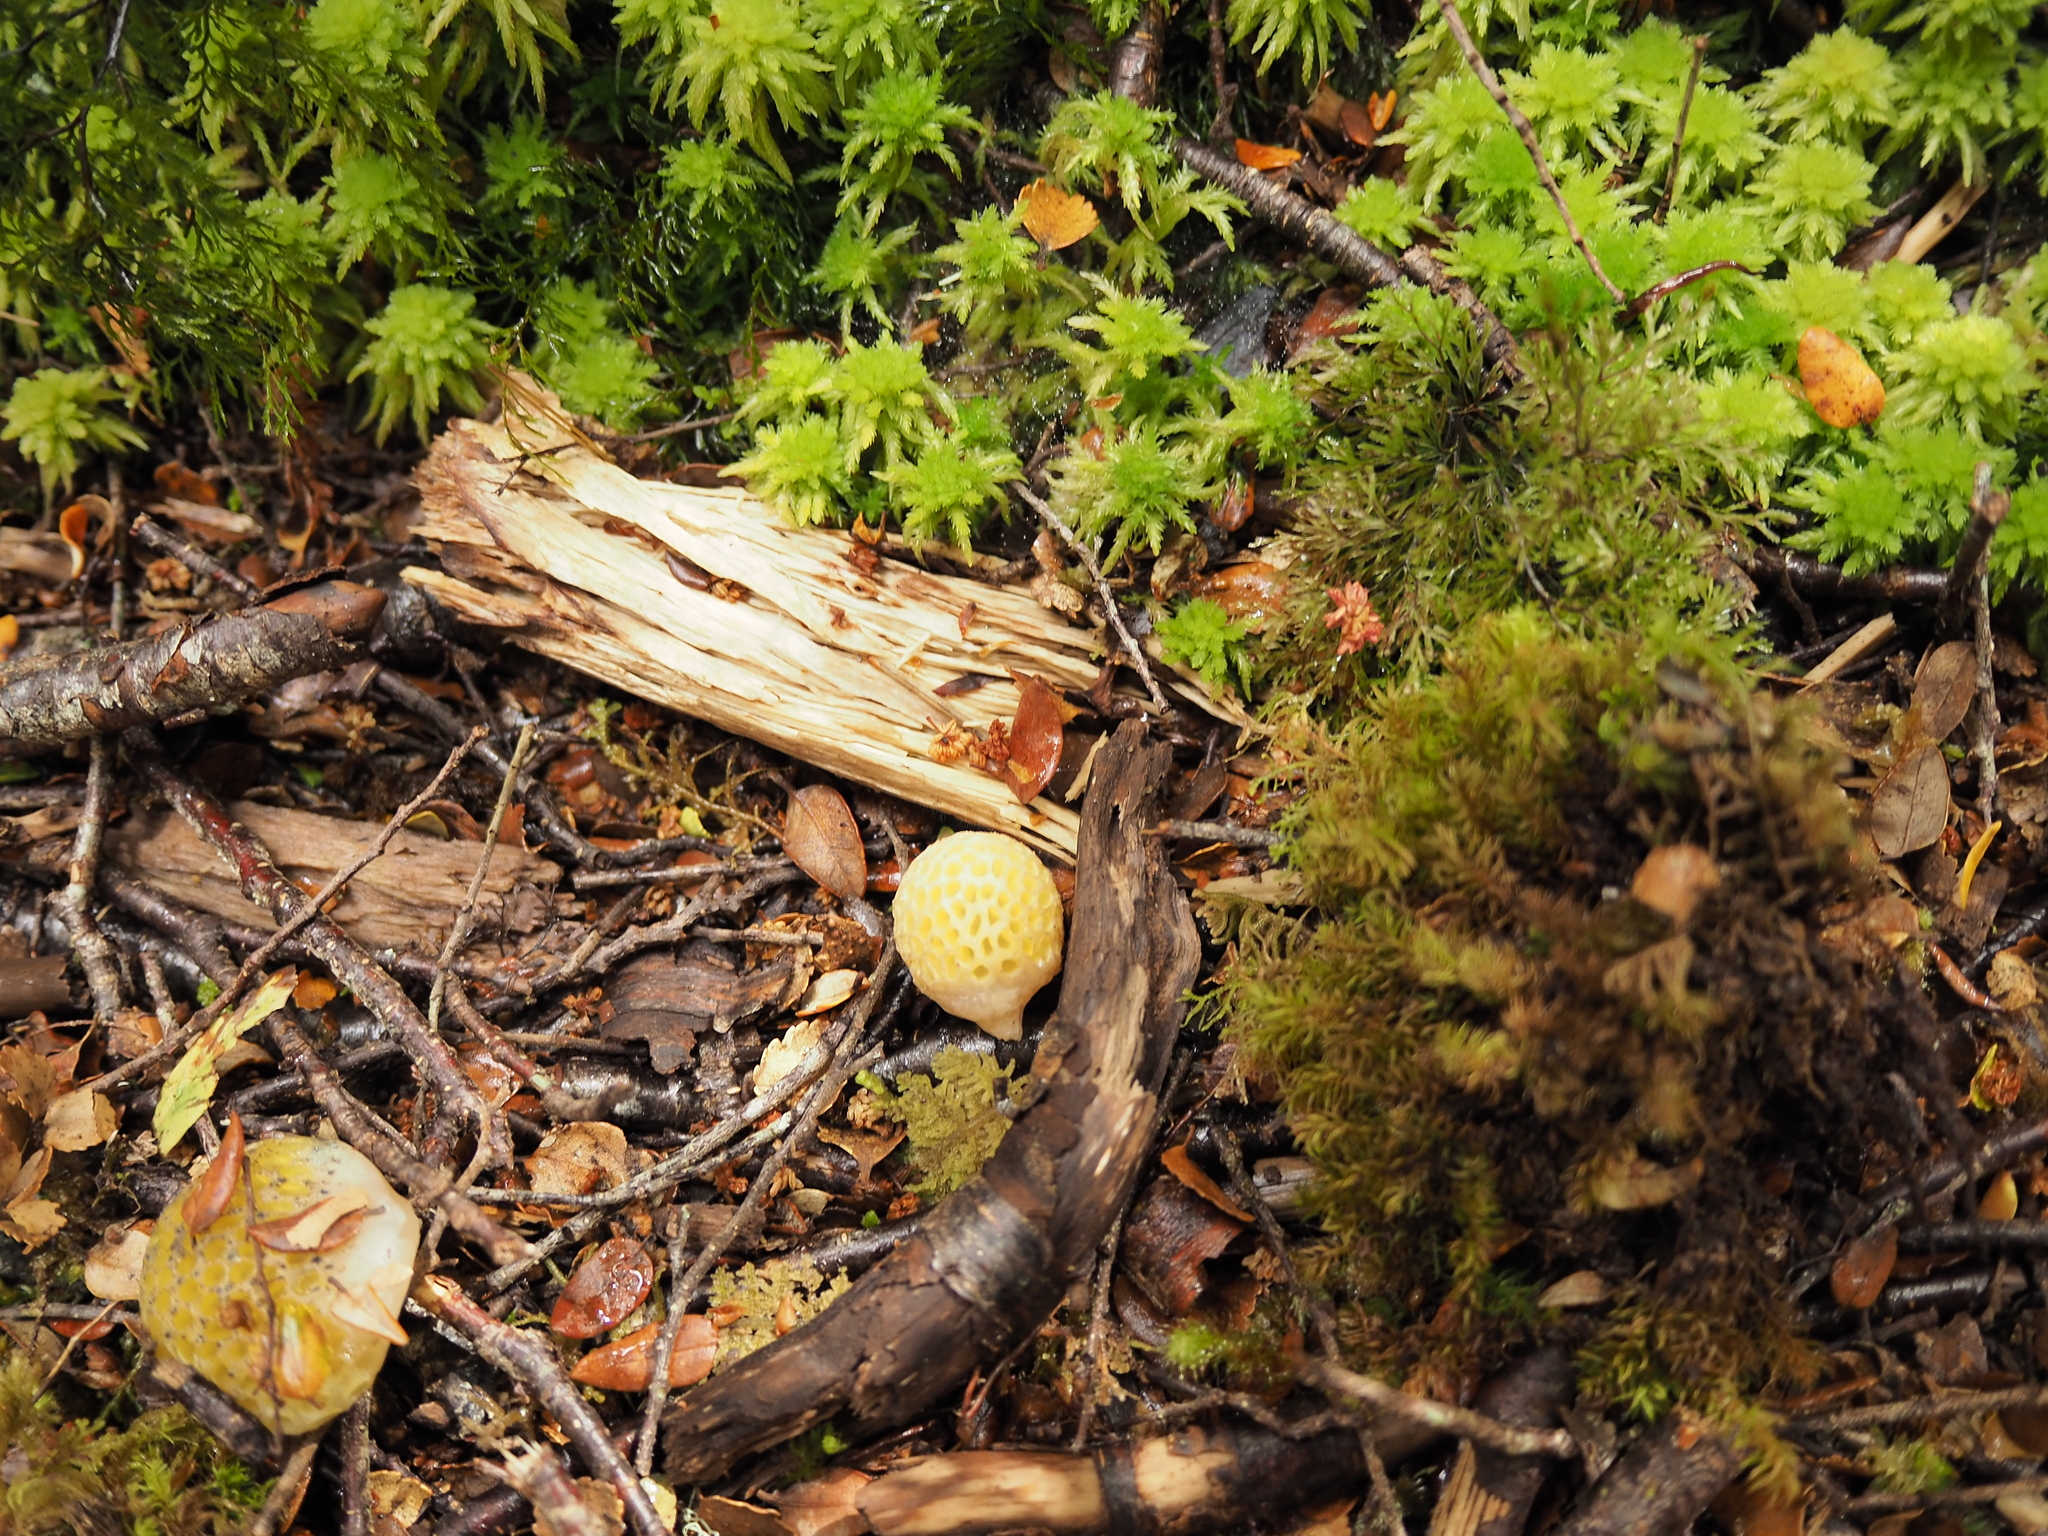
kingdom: Fungi
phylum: Ascomycota
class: Leotiomycetes
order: Cyttariales
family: Cyttariaceae
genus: Cyttaria
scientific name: Cyttaria gunnii
